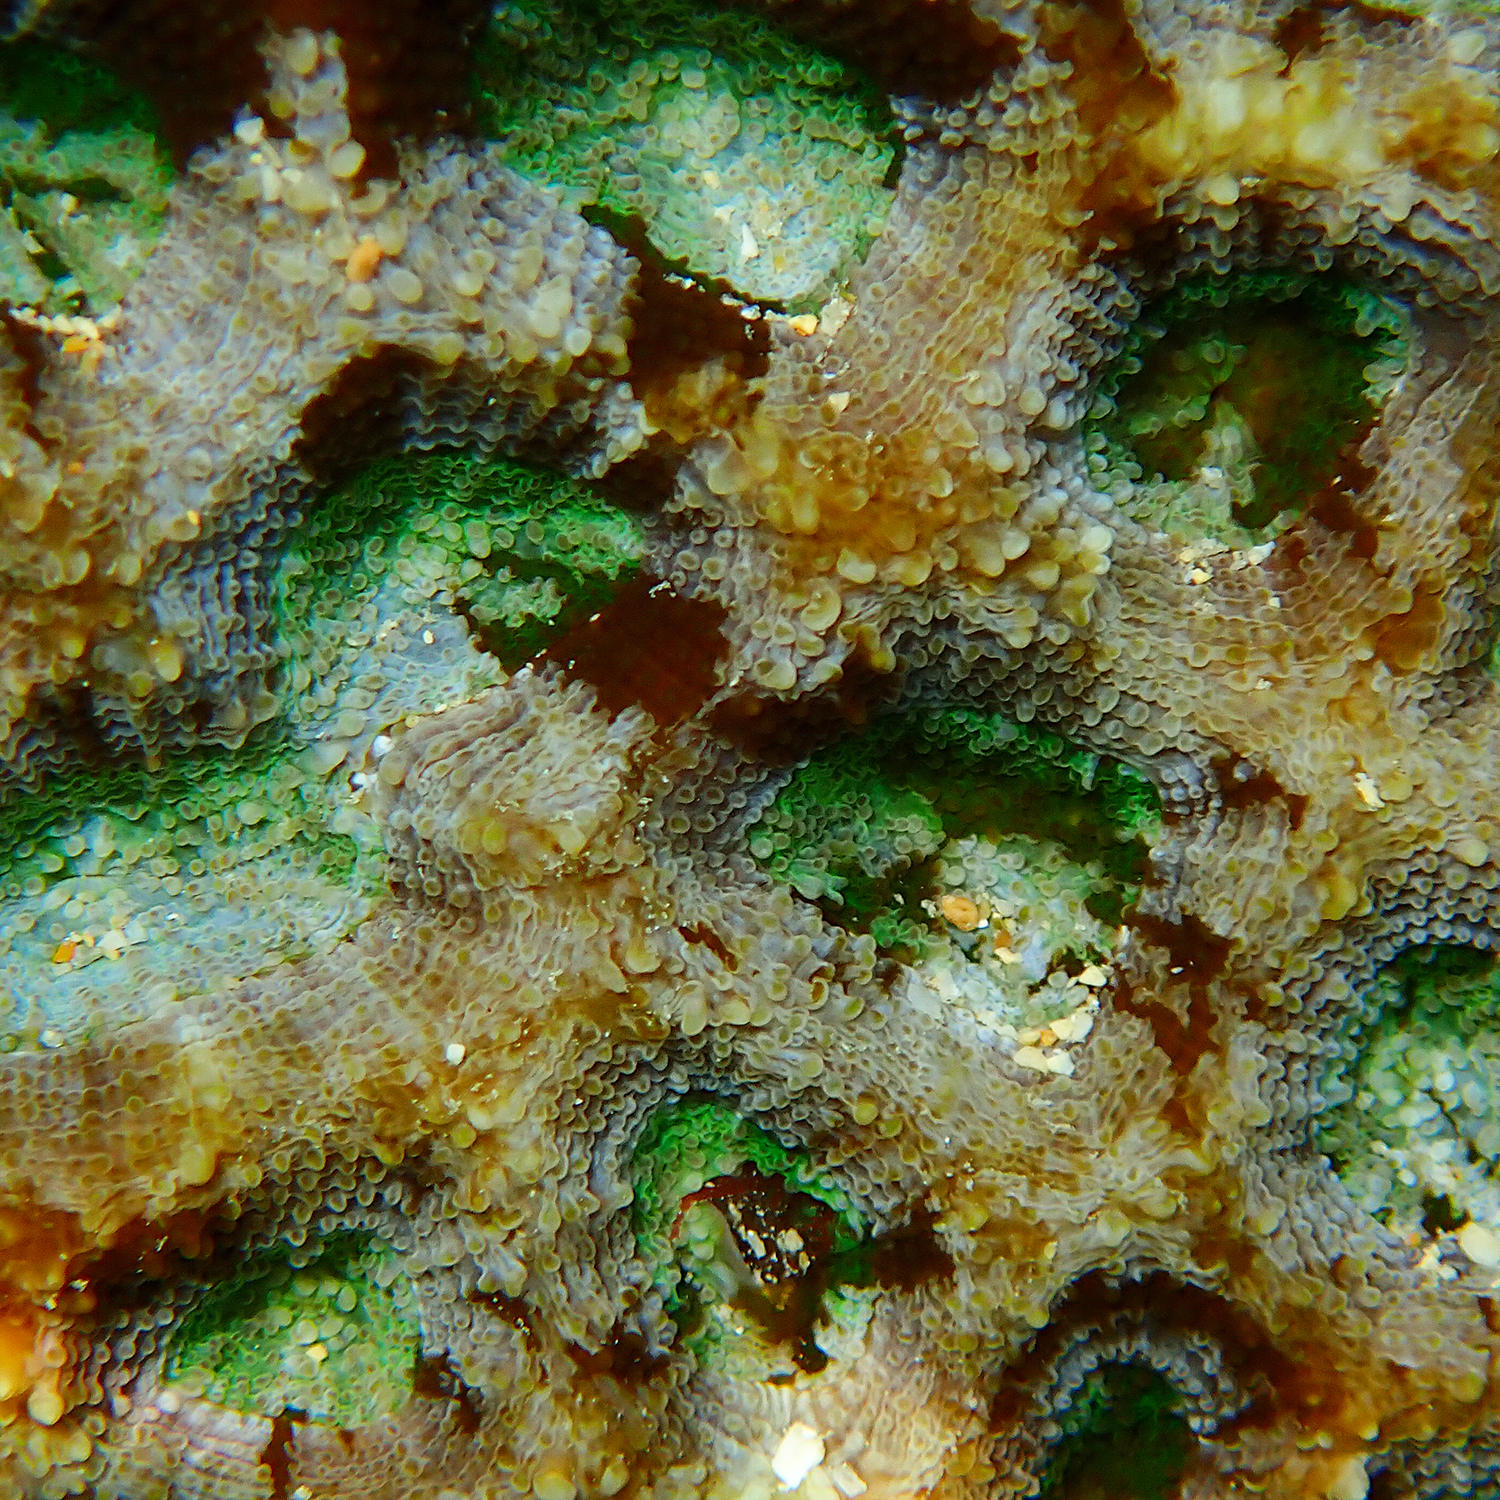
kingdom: Animalia
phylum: Cnidaria
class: Anthozoa
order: Scleractinia
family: Lobophylliidae
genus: Homophyllia
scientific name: Homophyllia bowerbanki
